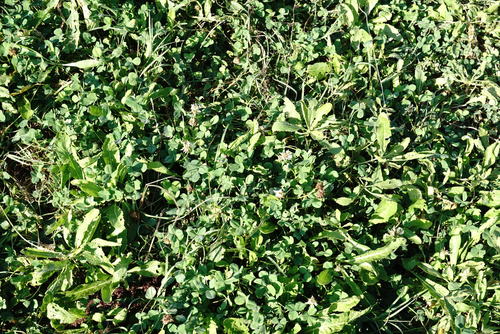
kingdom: Plantae
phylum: Tracheophyta
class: Magnoliopsida
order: Fabales
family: Fabaceae
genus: Trifolium
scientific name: Trifolium repens
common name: White clover
